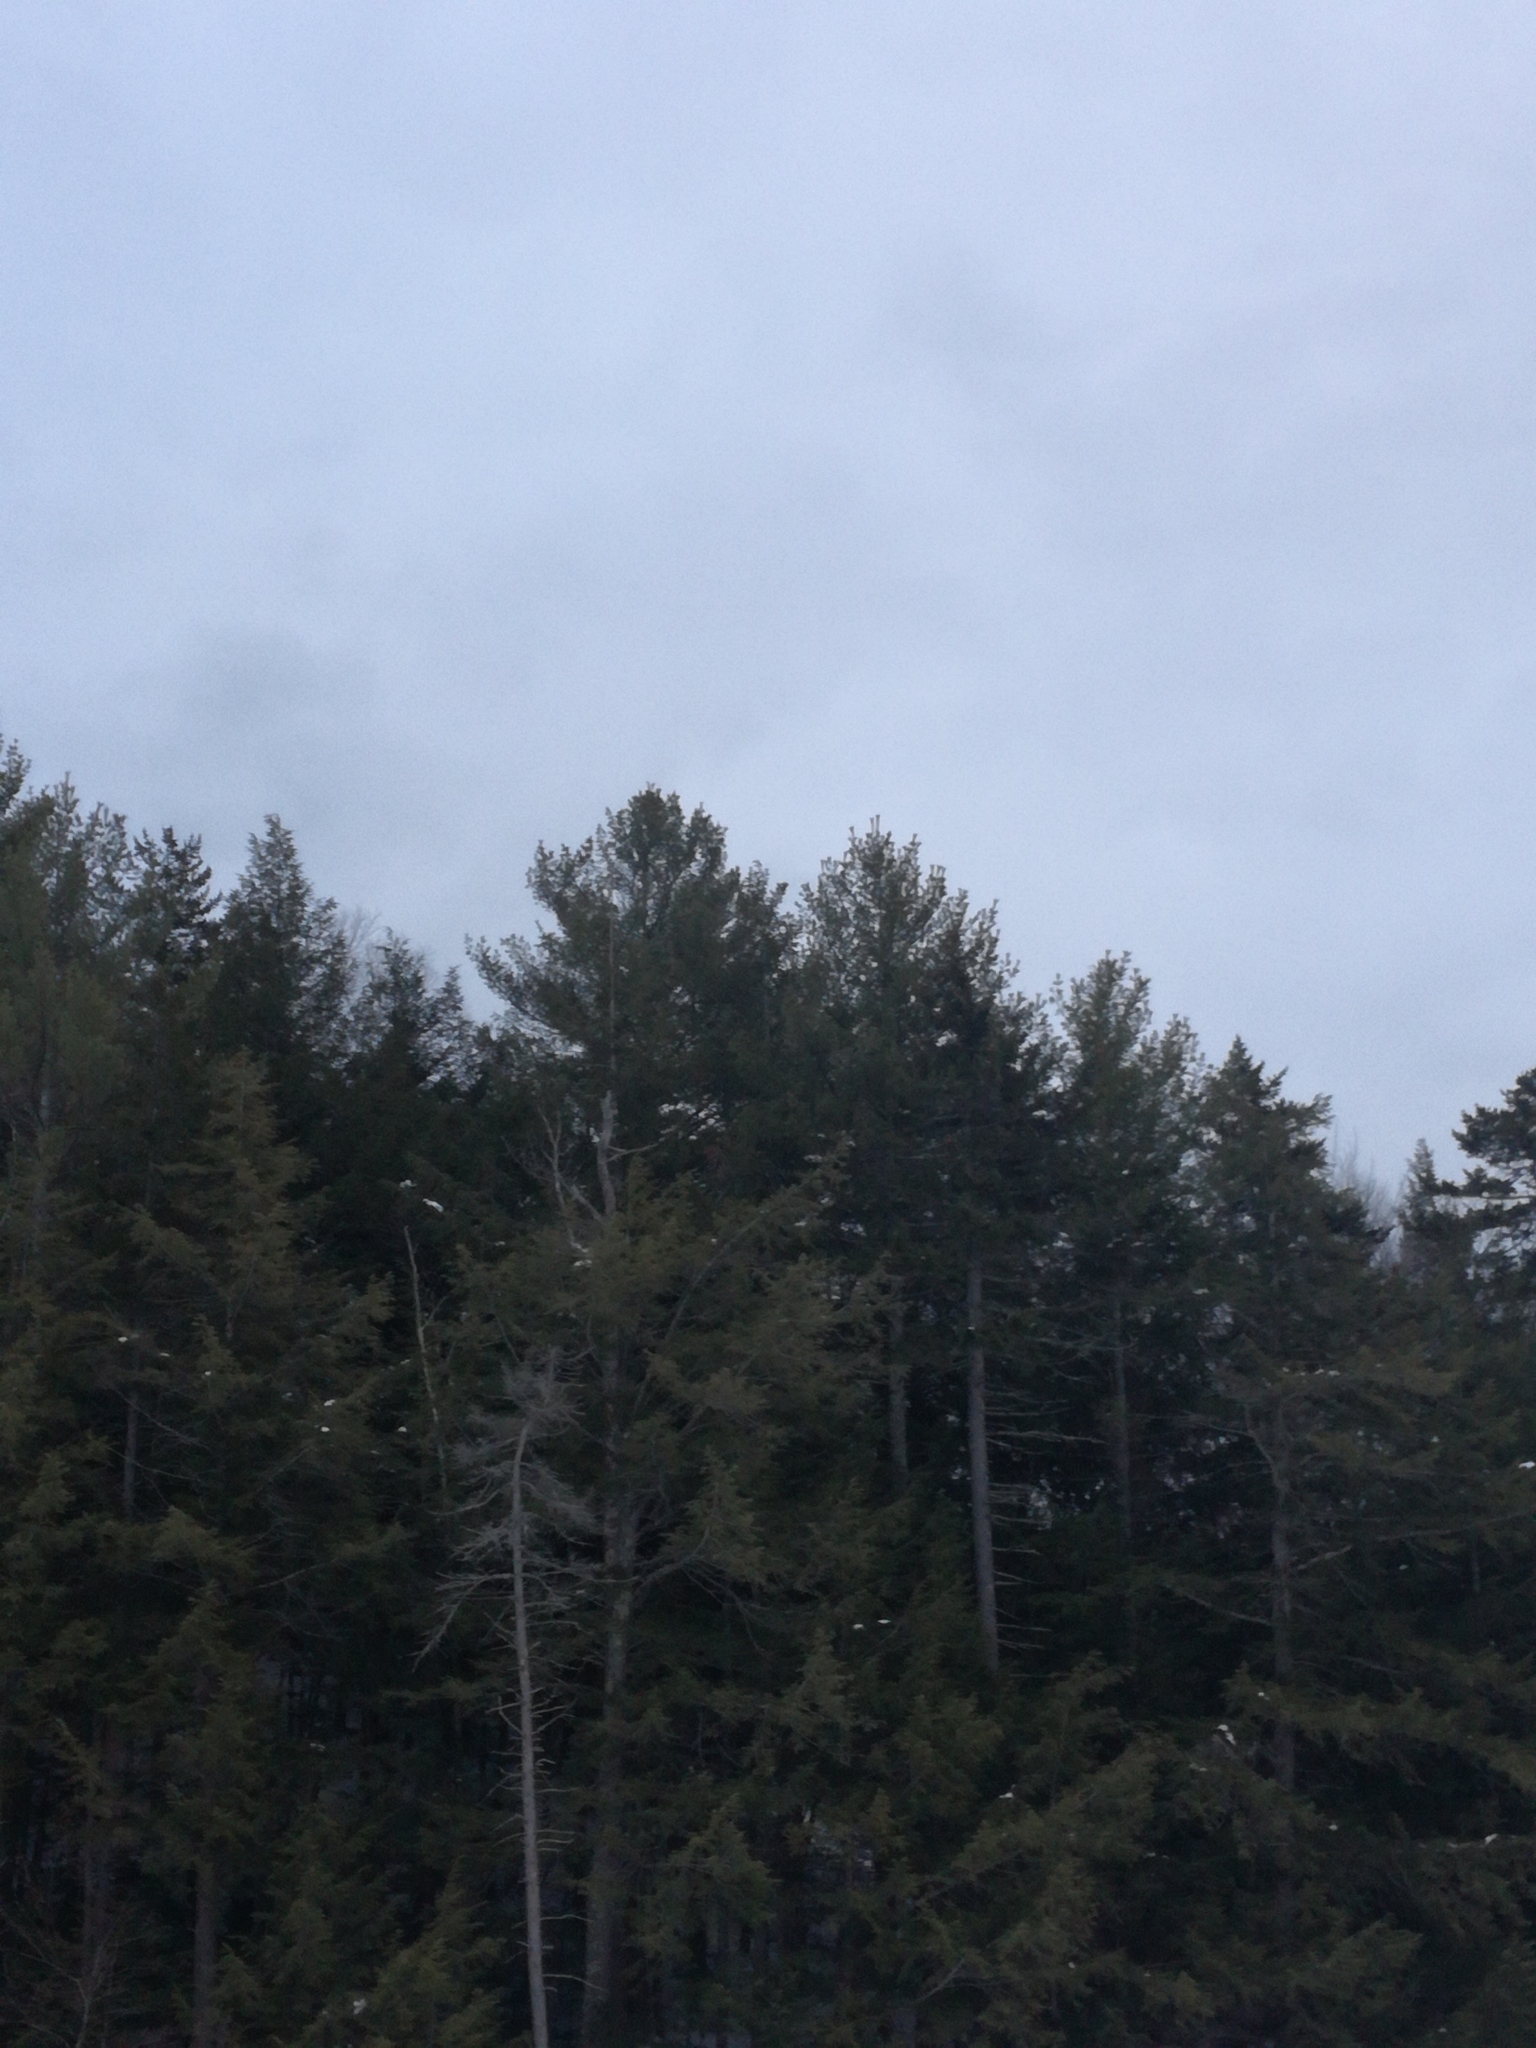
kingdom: Plantae
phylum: Tracheophyta
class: Pinopsida
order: Pinales
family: Pinaceae
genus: Pinus
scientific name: Pinus strobus
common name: Weymouth pine
